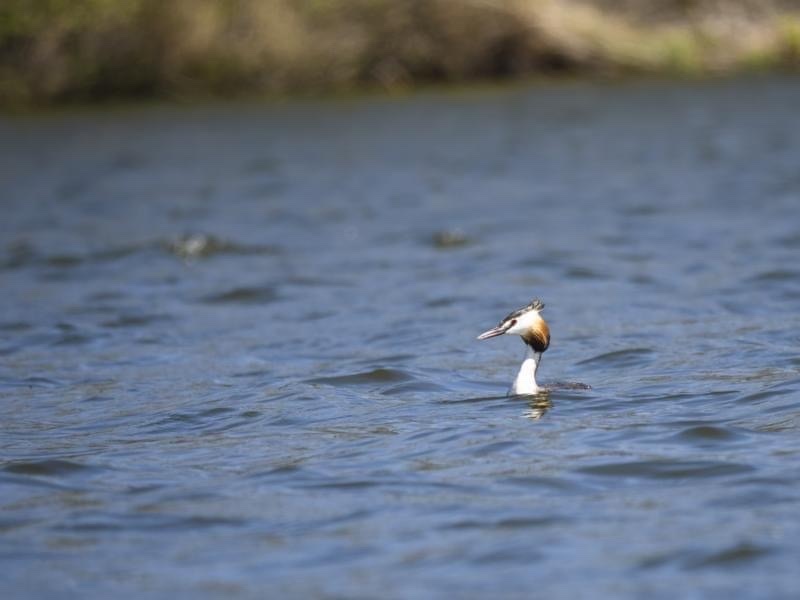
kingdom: Animalia
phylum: Chordata
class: Aves
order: Podicipediformes
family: Podicipedidae
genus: Podiceps
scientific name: Podiceps cristatus
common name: Great crested grebe
